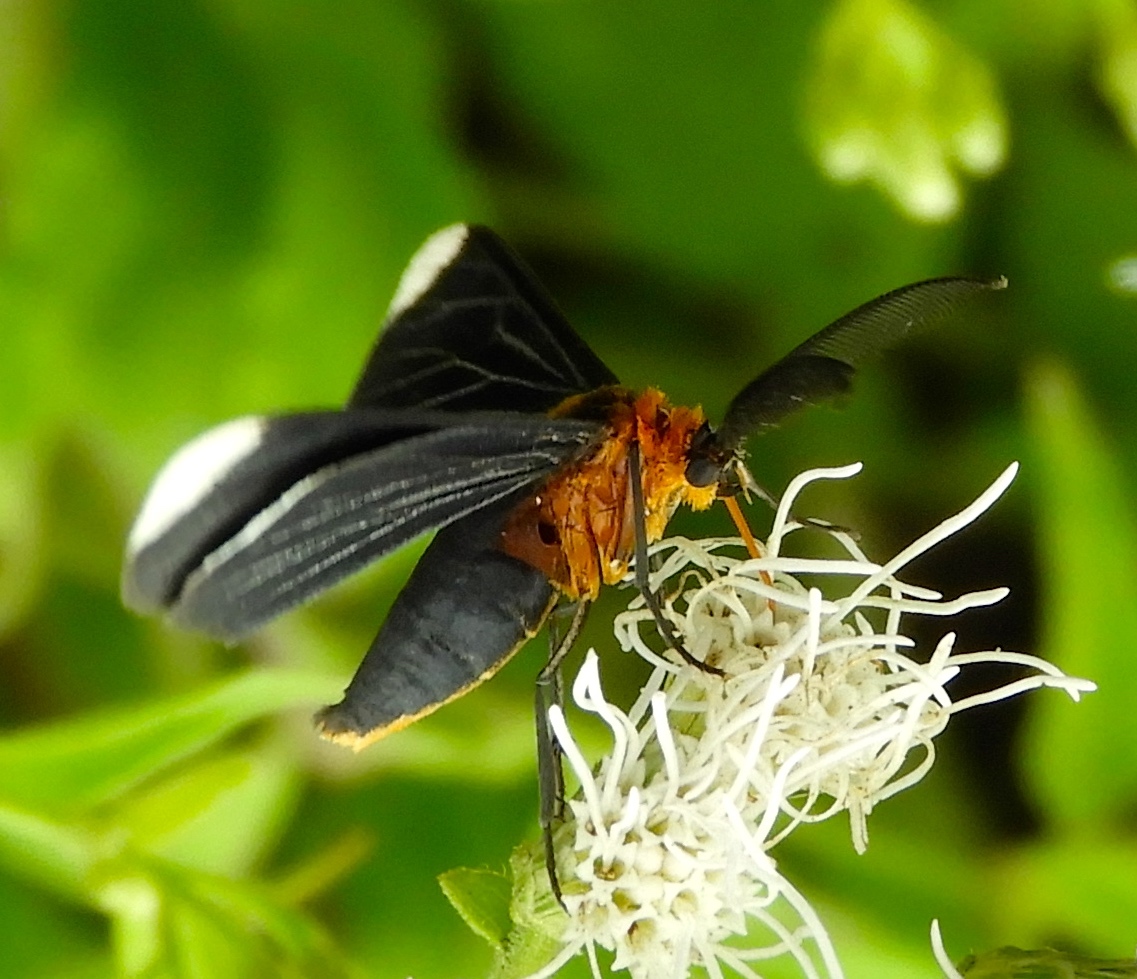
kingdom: Animalia
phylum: Arthropoda
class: Insecta
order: Lepidoptera
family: Geometridae
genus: Melanchroia
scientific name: Melanchroia chephise
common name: White-tipped black
